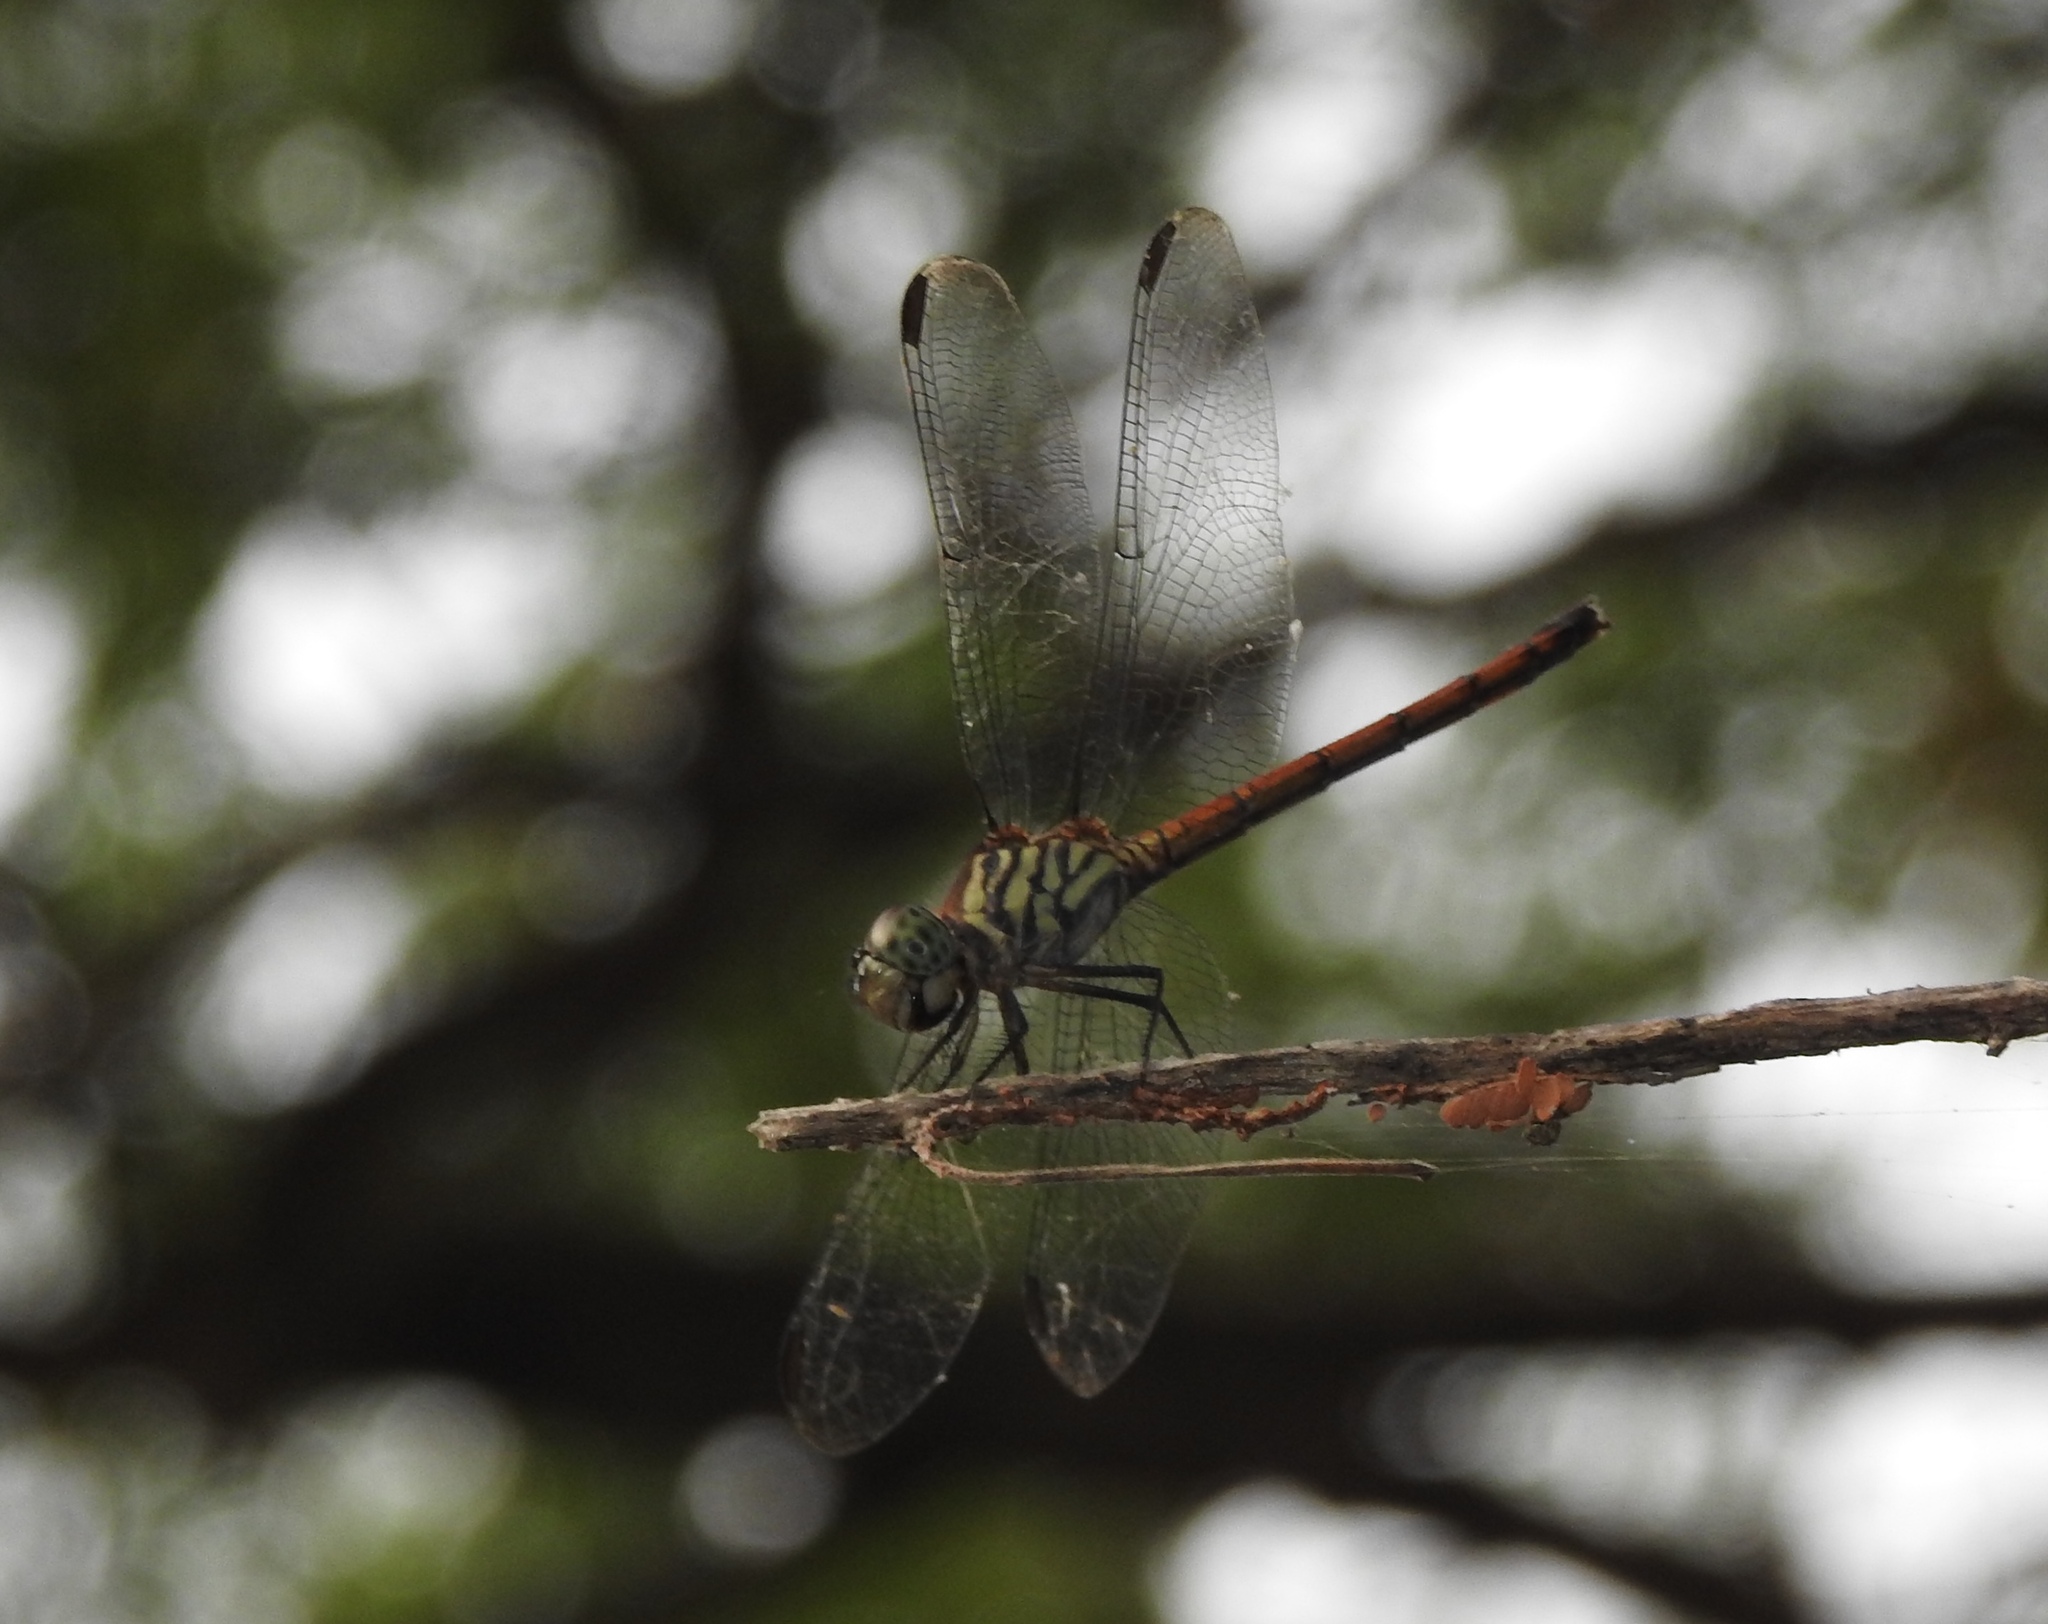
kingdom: Animalia
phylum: Arthropoda
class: Insecta
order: Odonata
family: Libellulidae
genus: Lathrecista
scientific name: Lathrecista asiatica
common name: Scarlet grenadier
